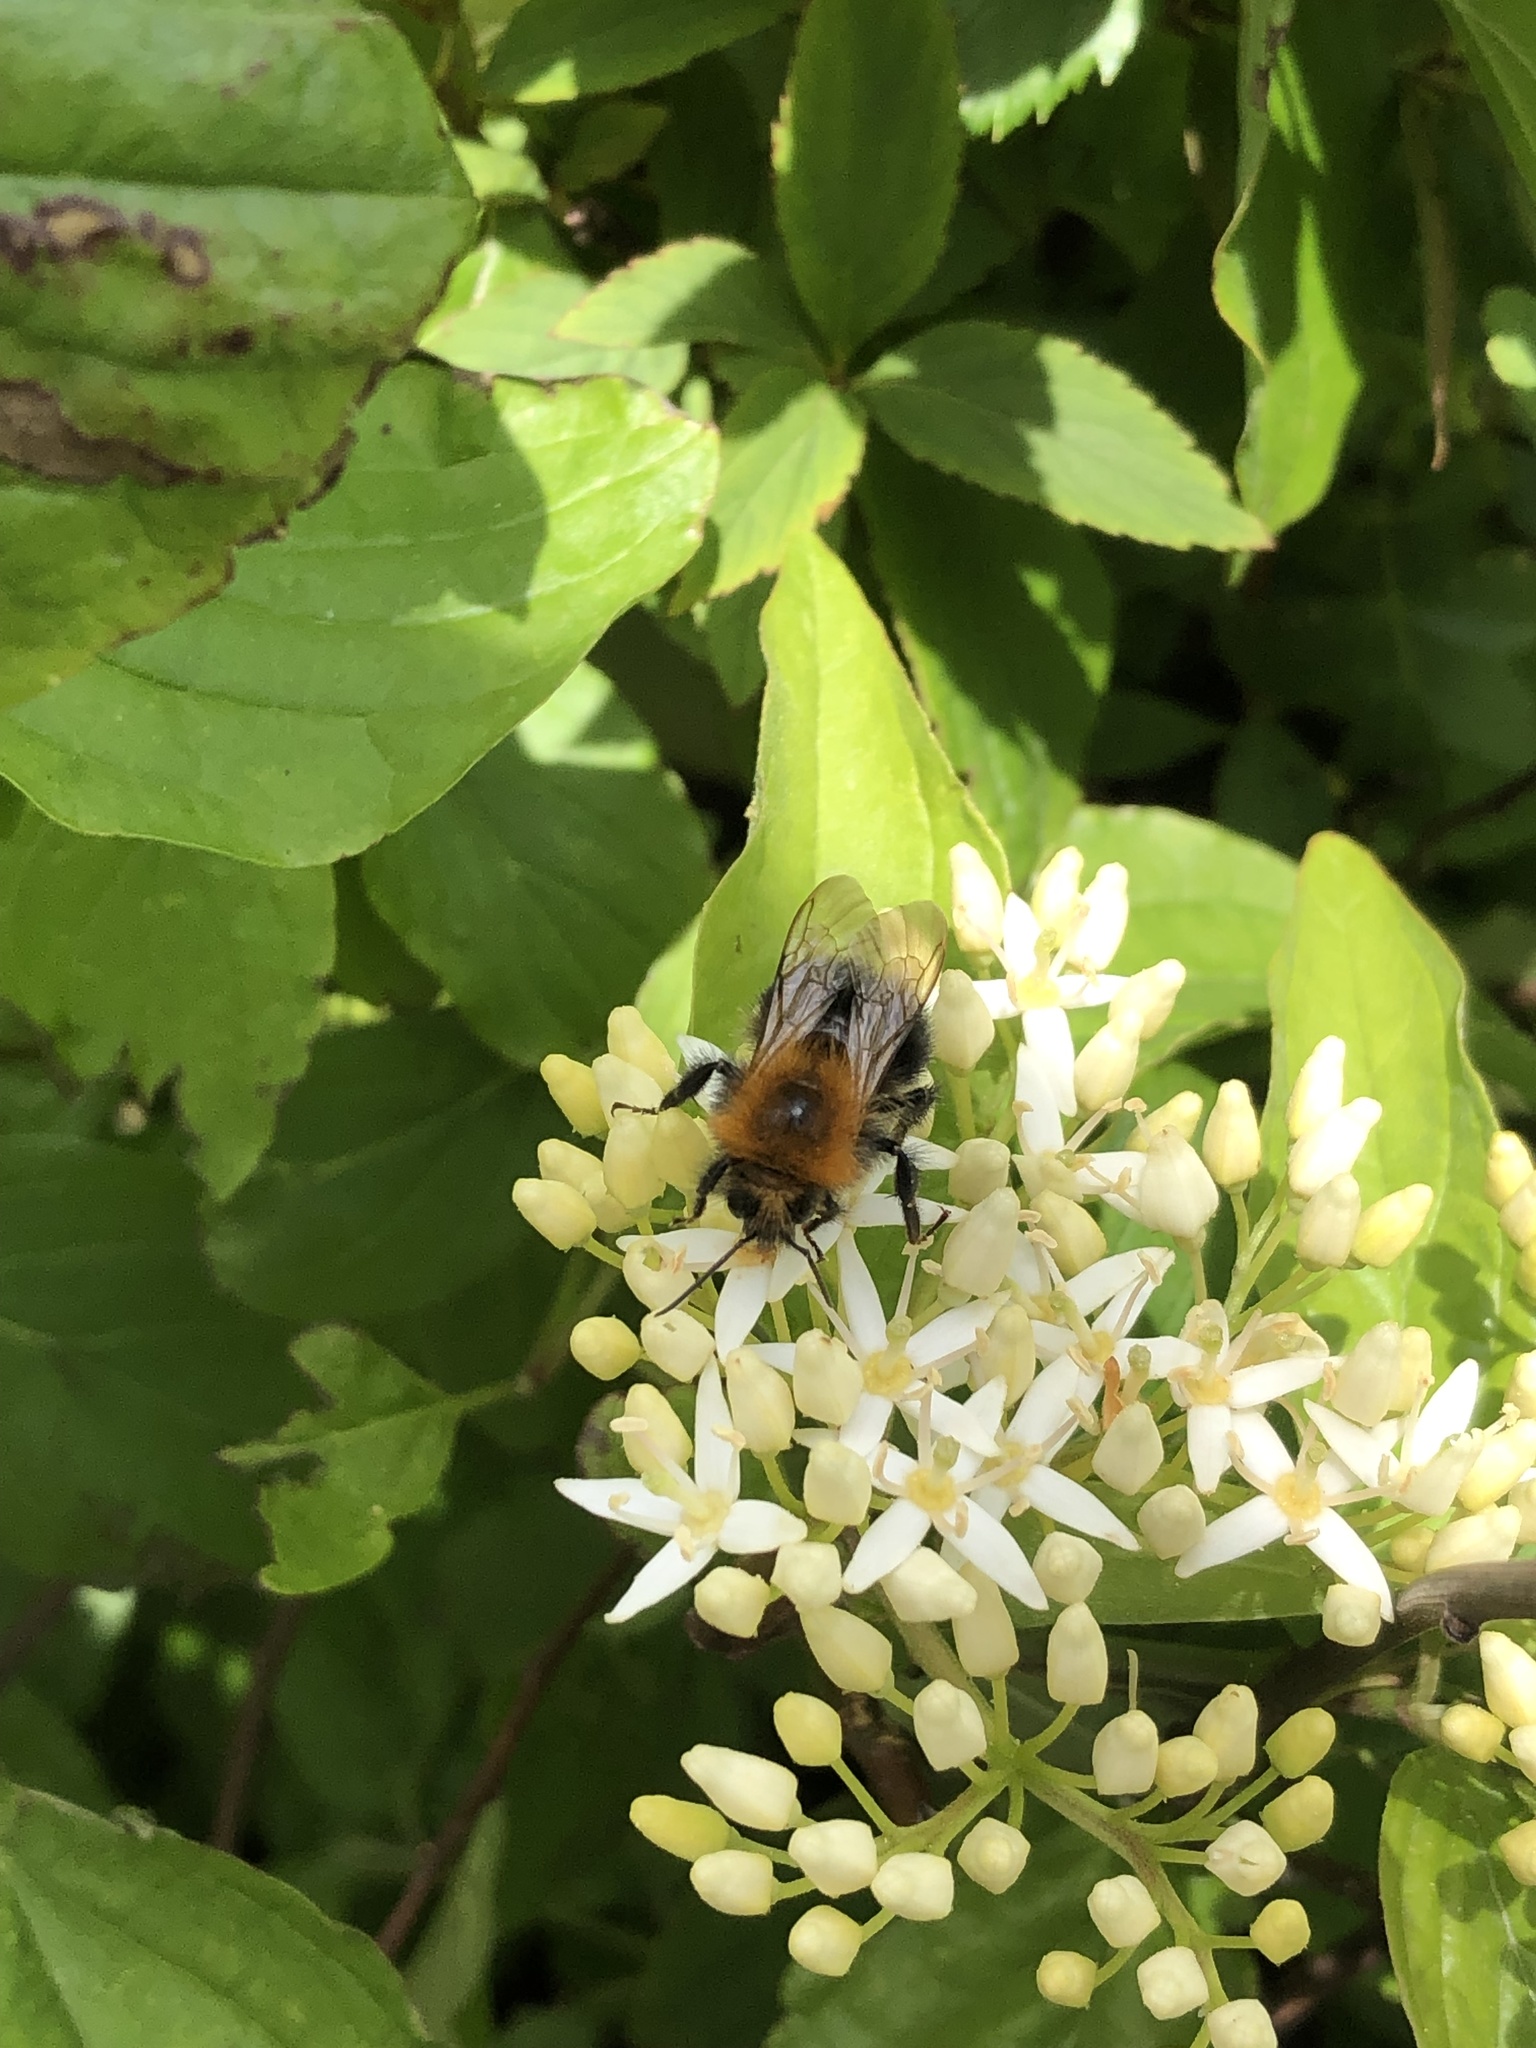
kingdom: Animalia
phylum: Arthropoda
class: Insecta
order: Hymenoptera
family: Apidae
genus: Bombus
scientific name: Bombus hypnorum
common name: New garden bumblebee
